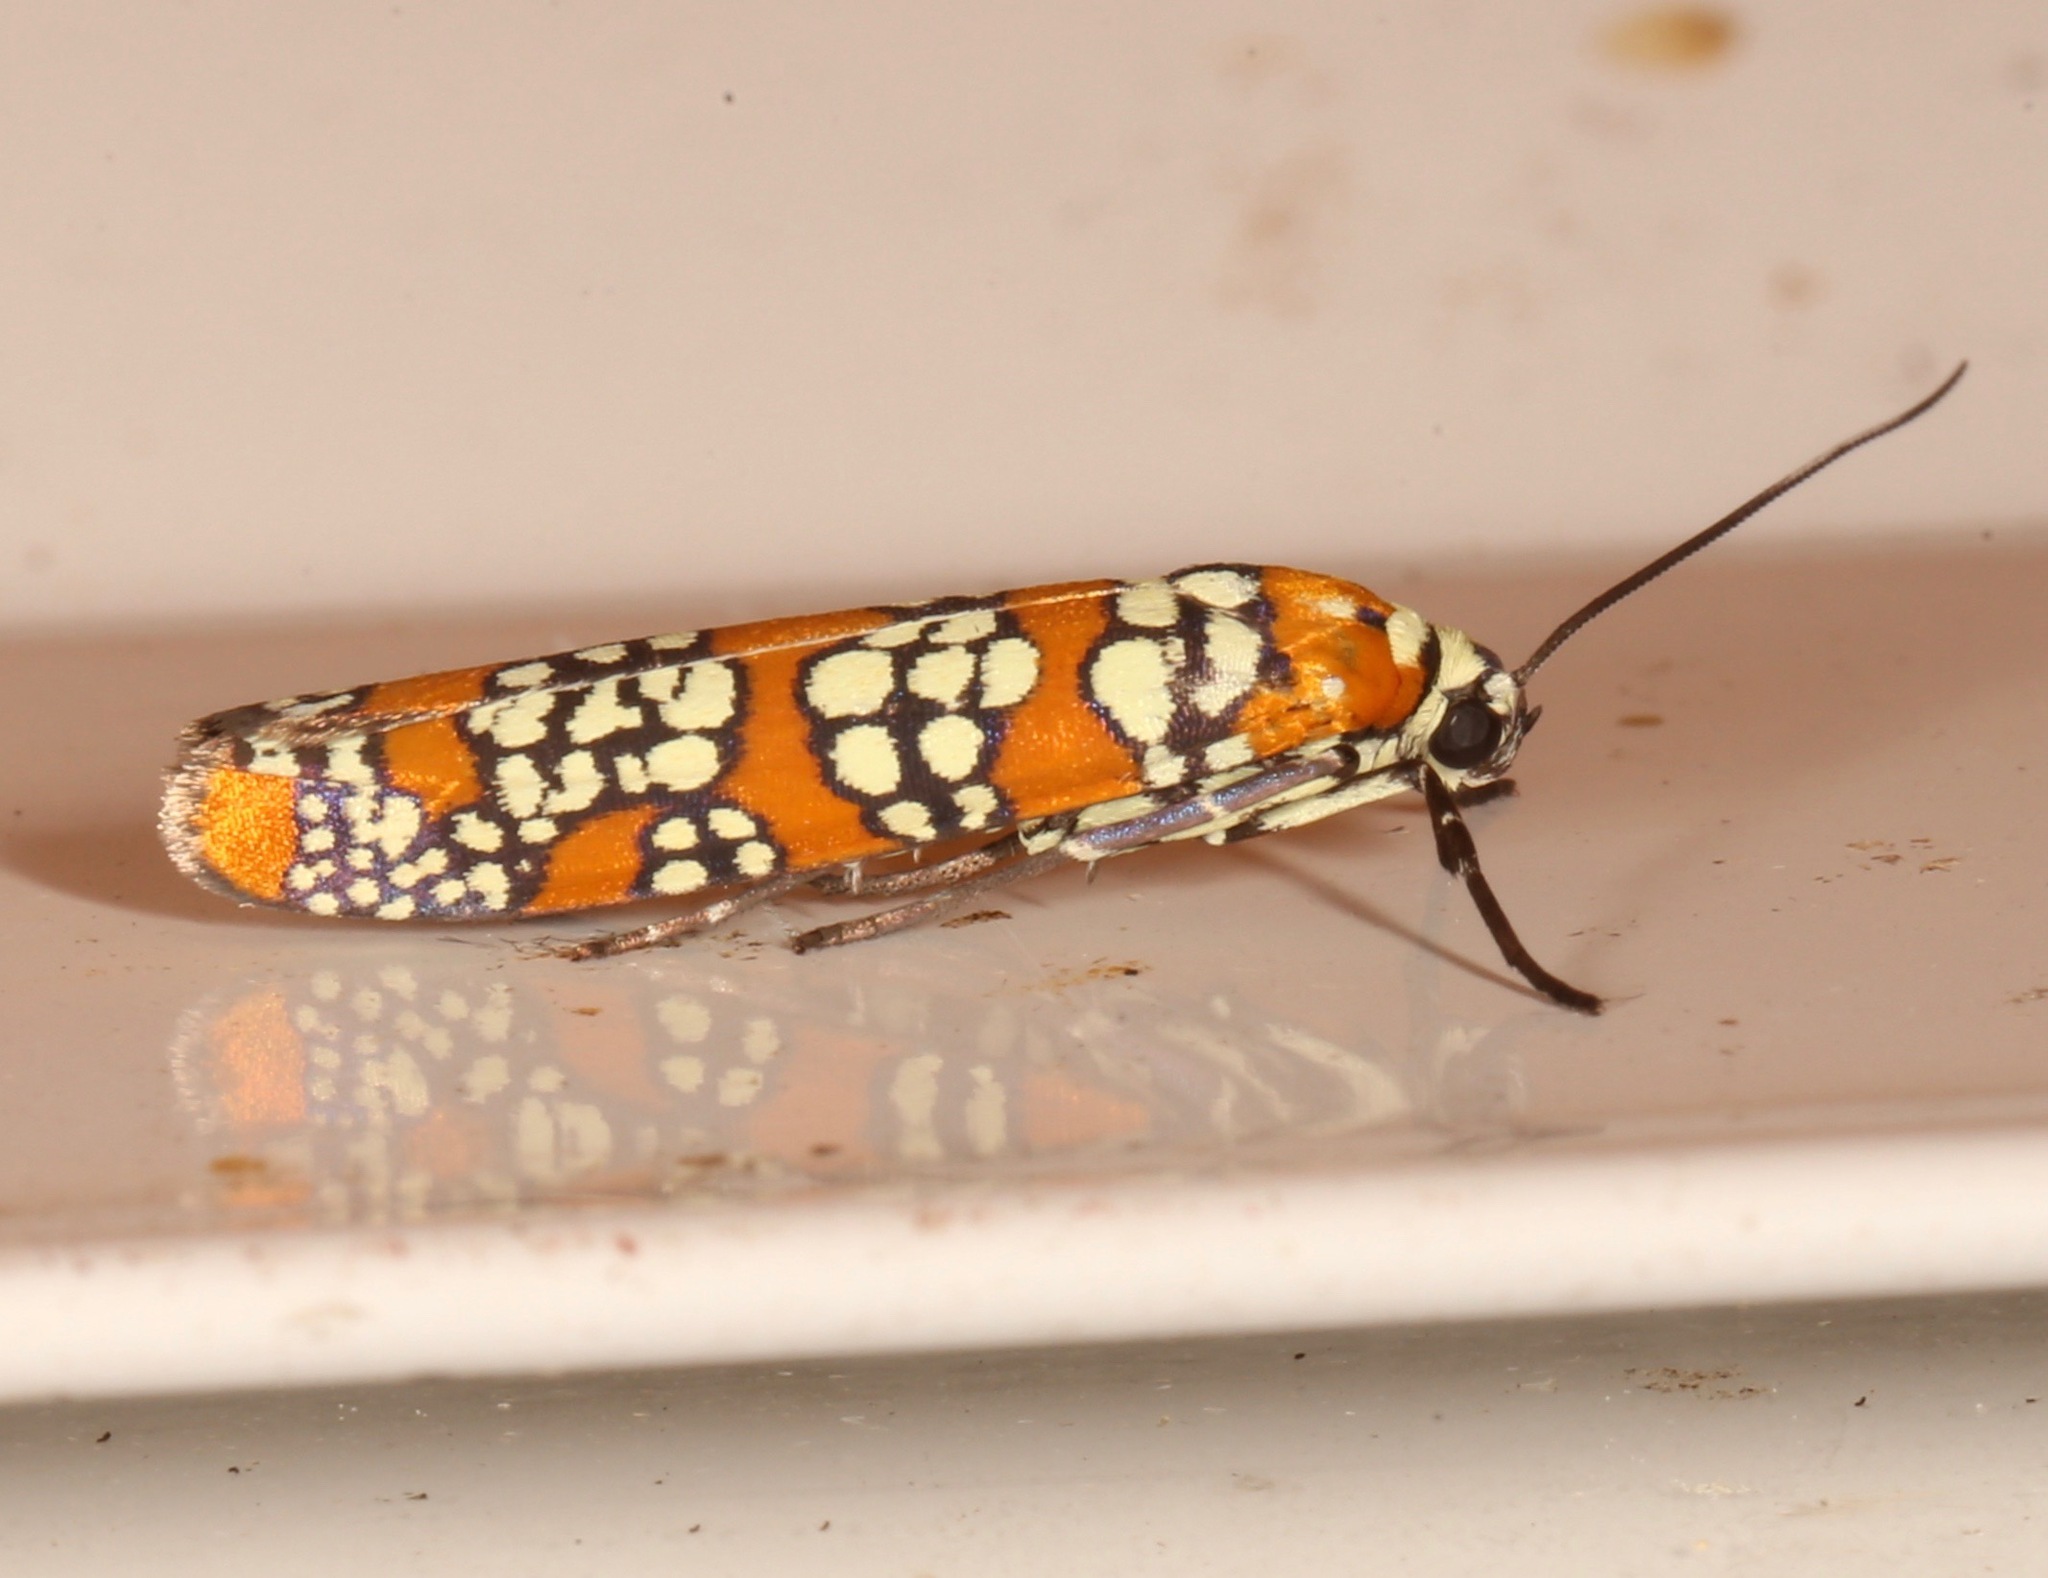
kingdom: Animalia
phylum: Arthropoda
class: Insecta
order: Lepidoptera
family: Attevidae
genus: Atteva
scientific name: Atteva punctella
